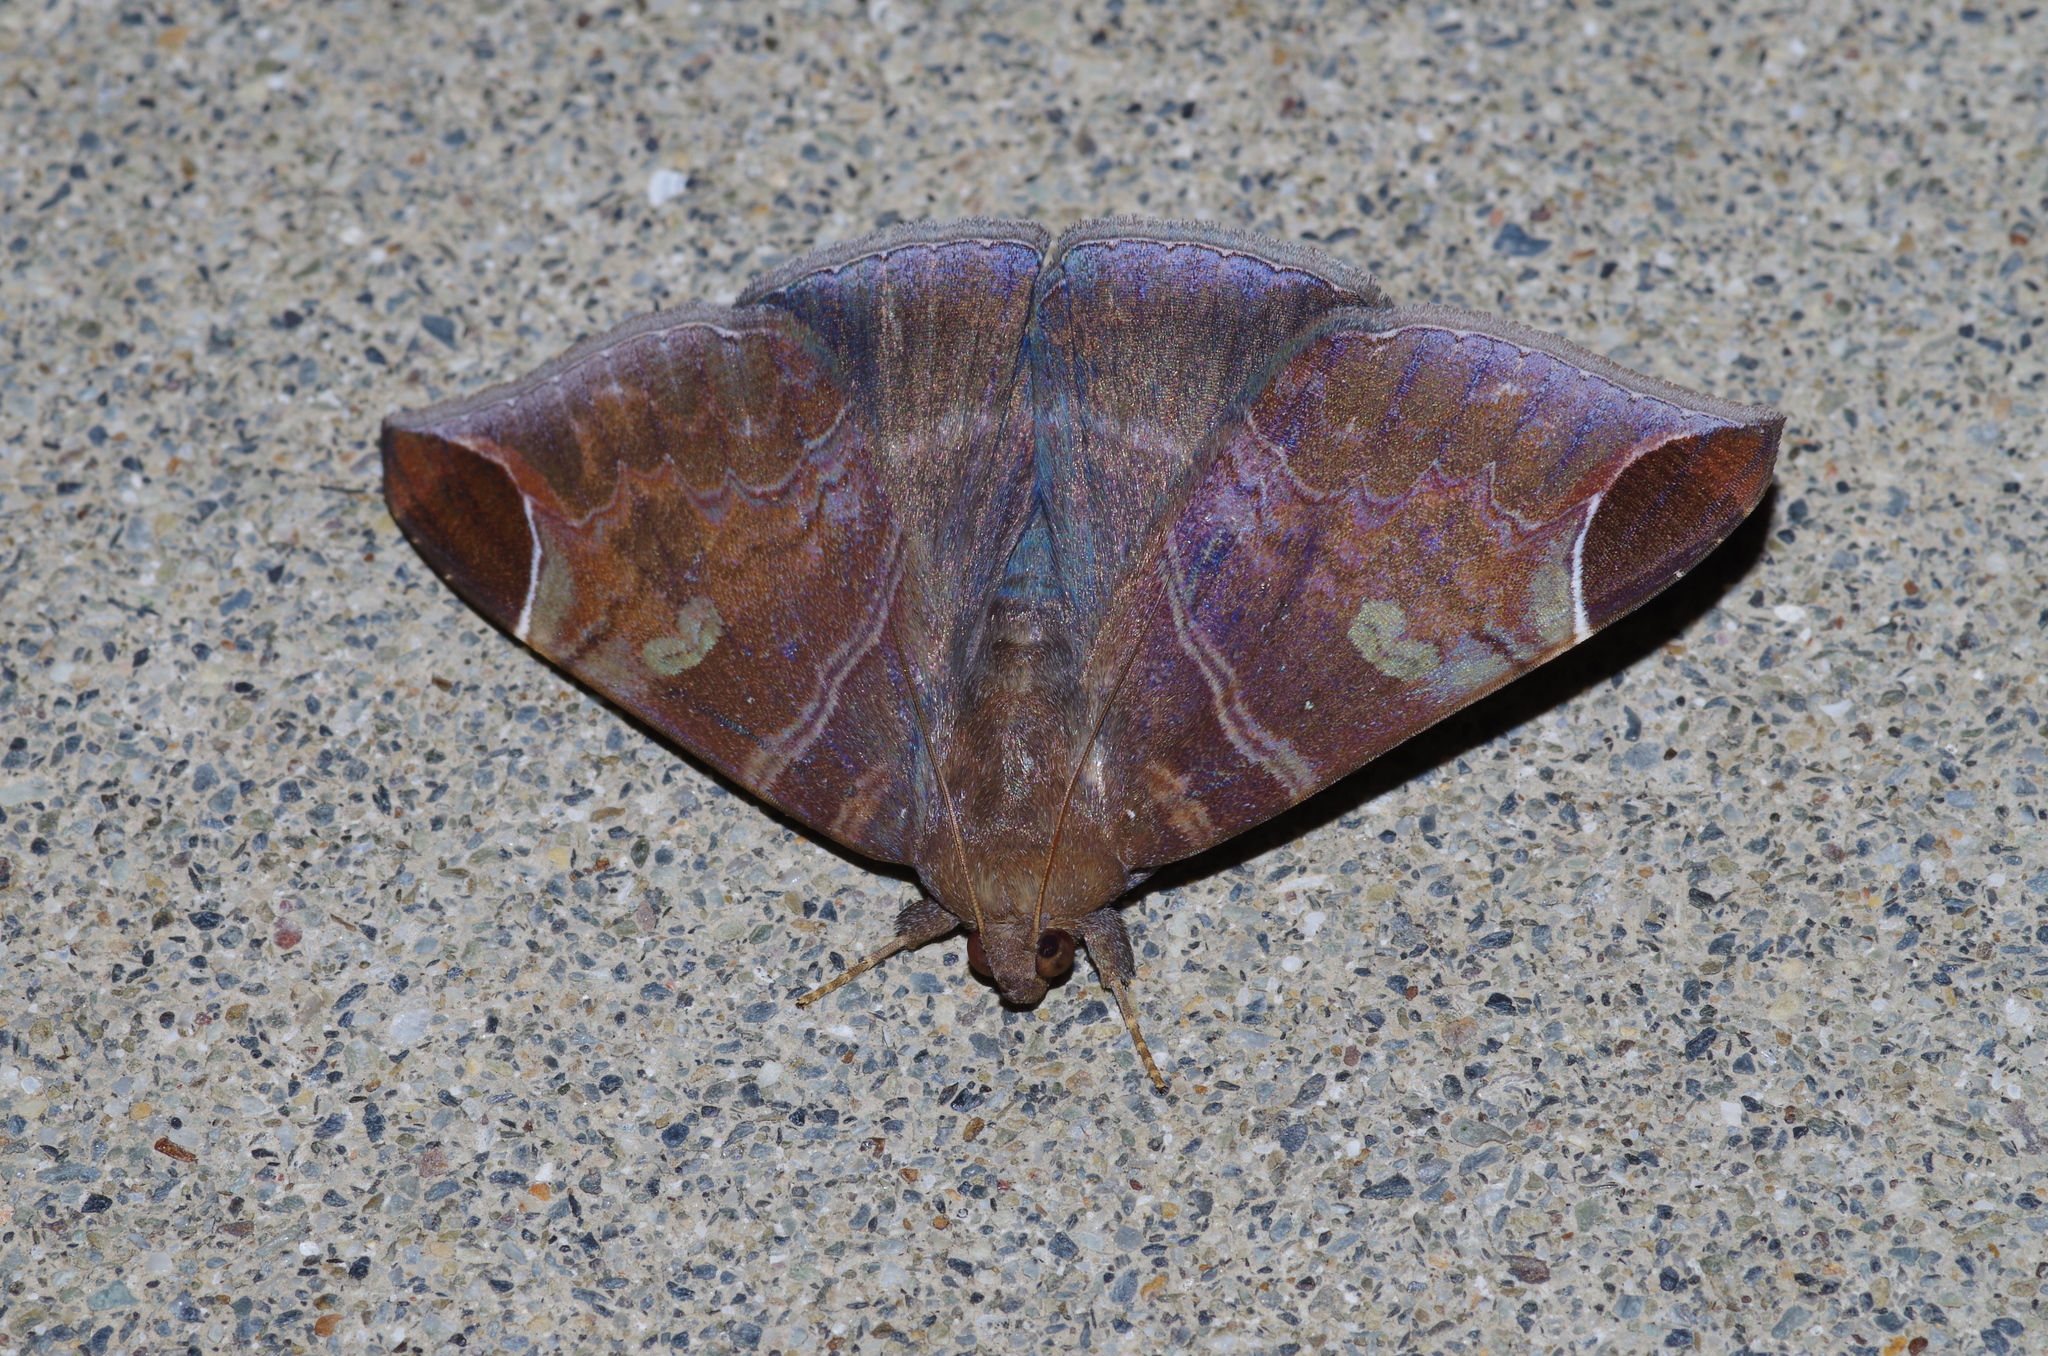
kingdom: Animalia
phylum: Arthropoda
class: Insecta
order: Lepidoptera
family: Erebidae
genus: Pindara
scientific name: Pindara illibata
